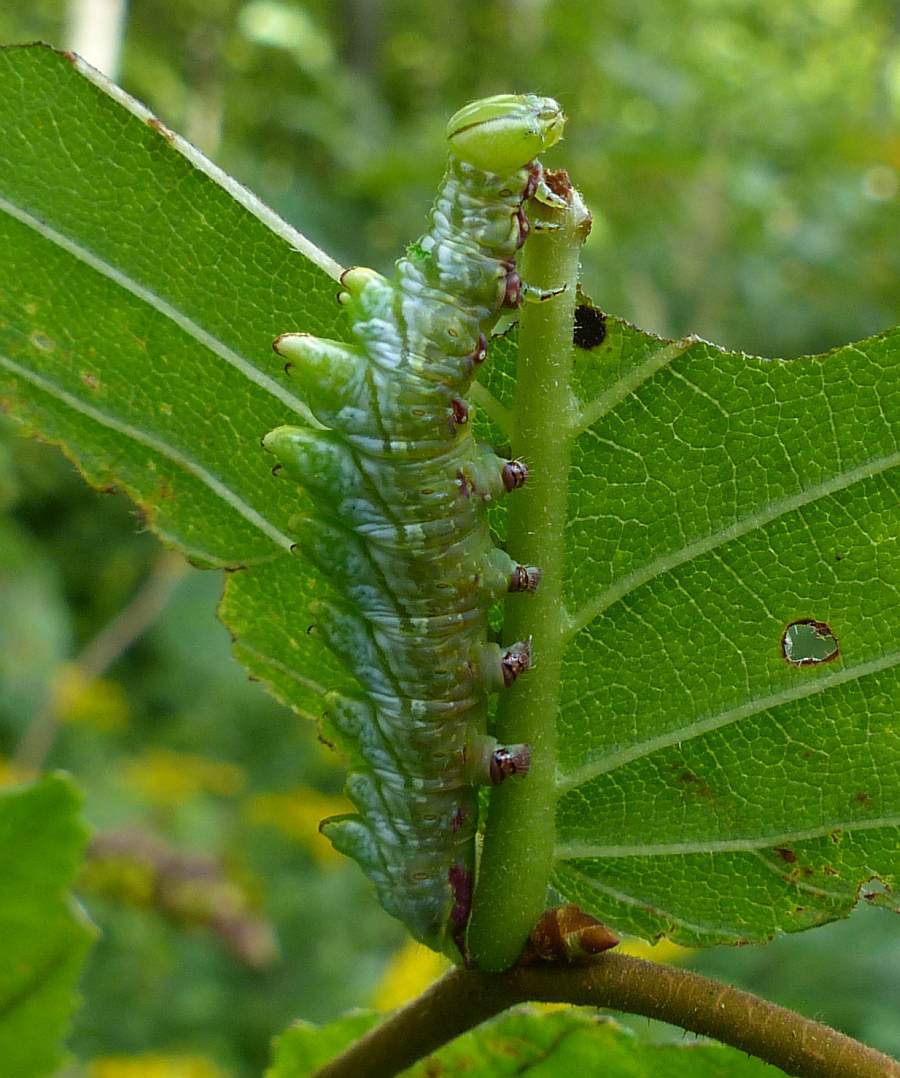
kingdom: Animalia
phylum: Arthropoda
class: Insecta
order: Lepidoptera
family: Notodontidae
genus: Nerice
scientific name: Nerice bidentata
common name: Double-toothed prominent
